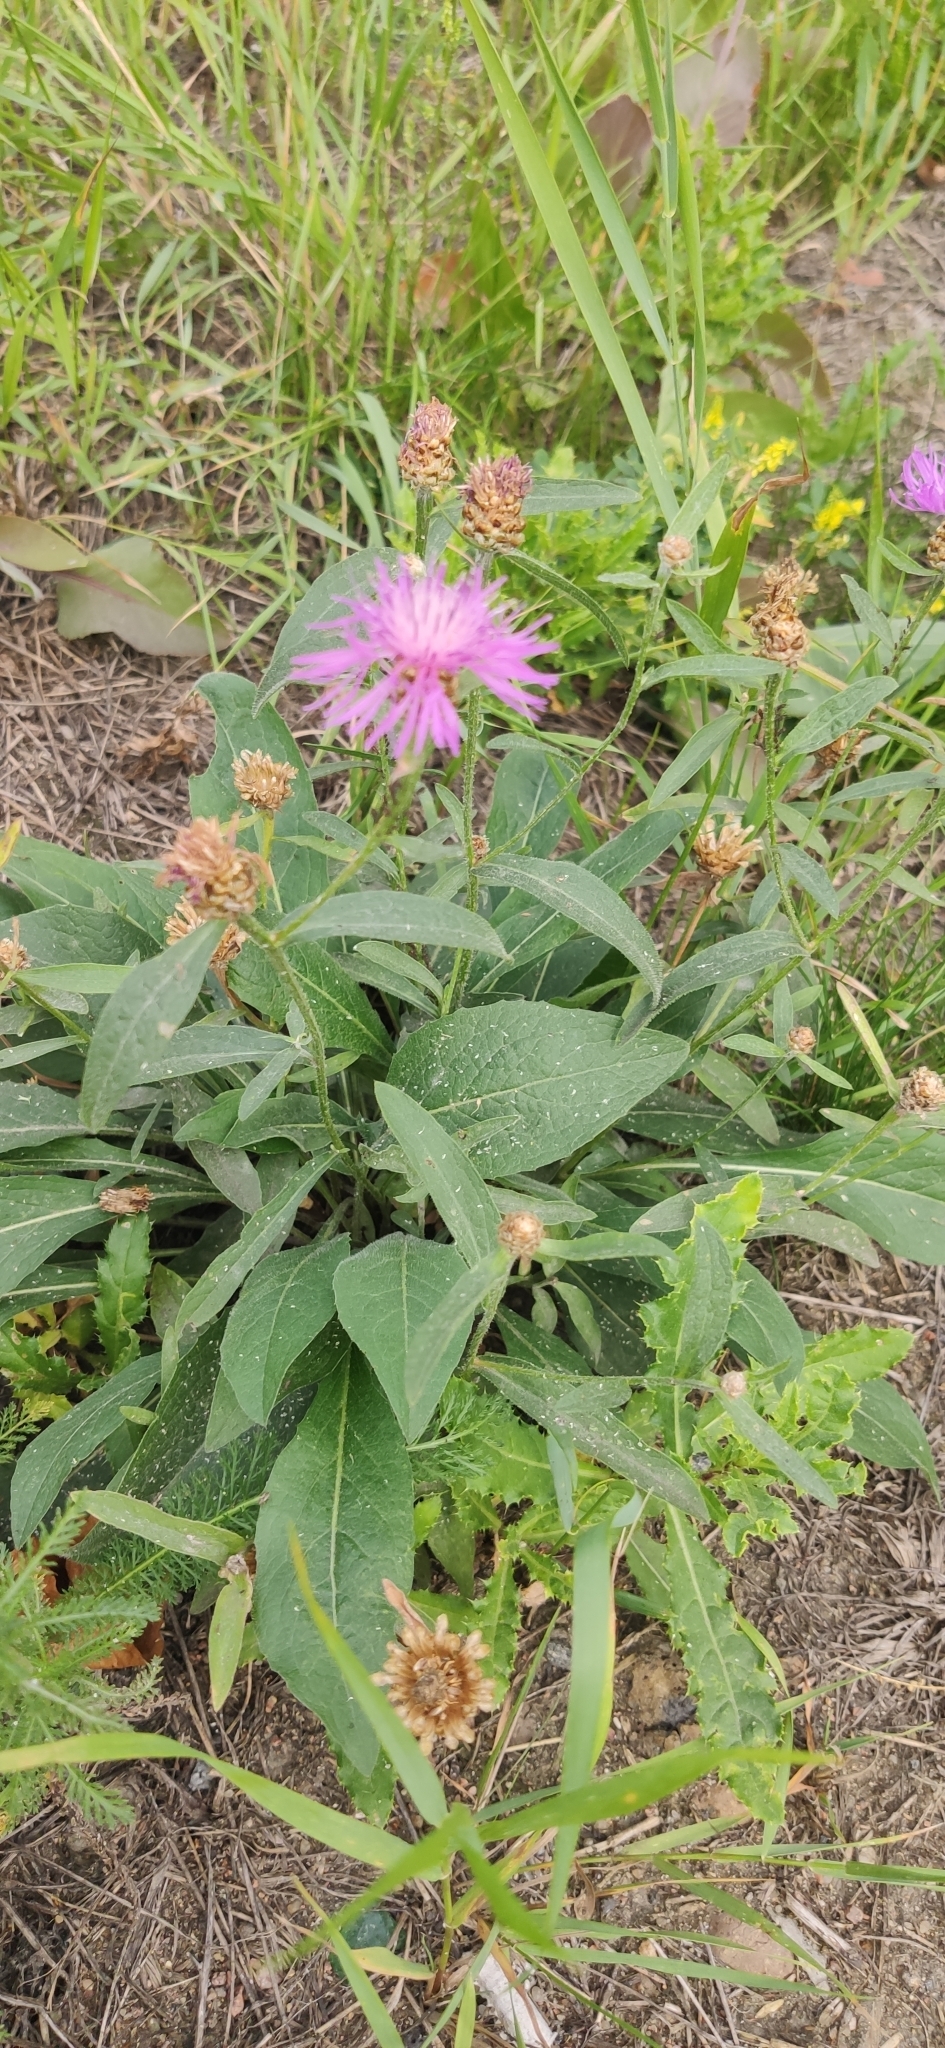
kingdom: Plantae
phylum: Tracheophyta
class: Magnoliopsida
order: Asterales
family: Asteraceae
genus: Centaurea
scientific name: Centaurea jacea
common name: Brown knapweed
